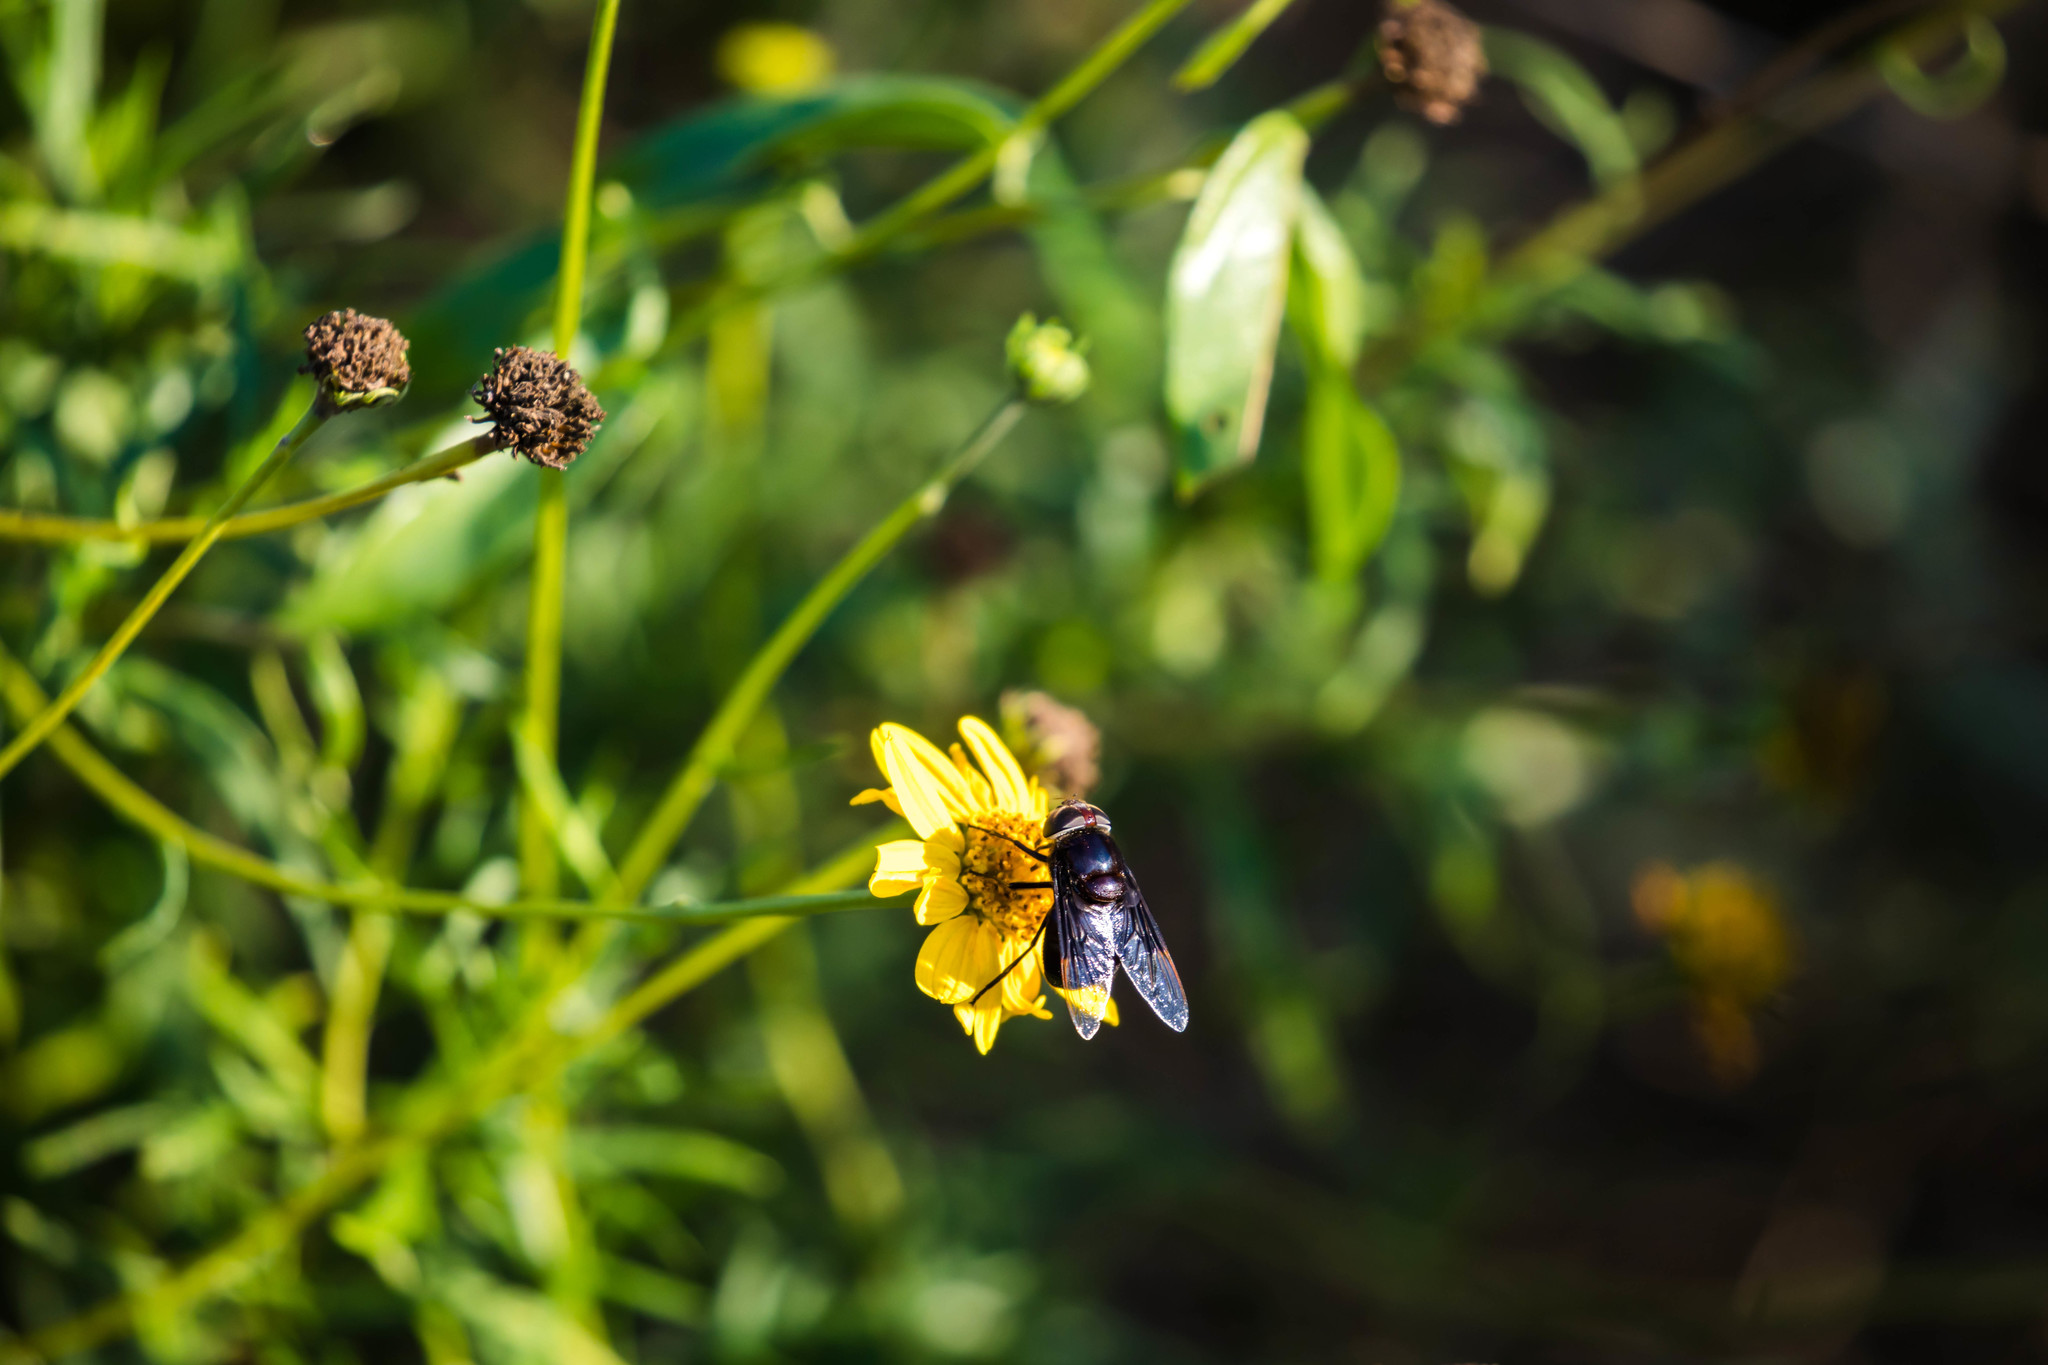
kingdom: Animalia
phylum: Arthropoda
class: Insecta
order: Diptera
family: Syrphidae
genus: Copestylum
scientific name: Copestylum
